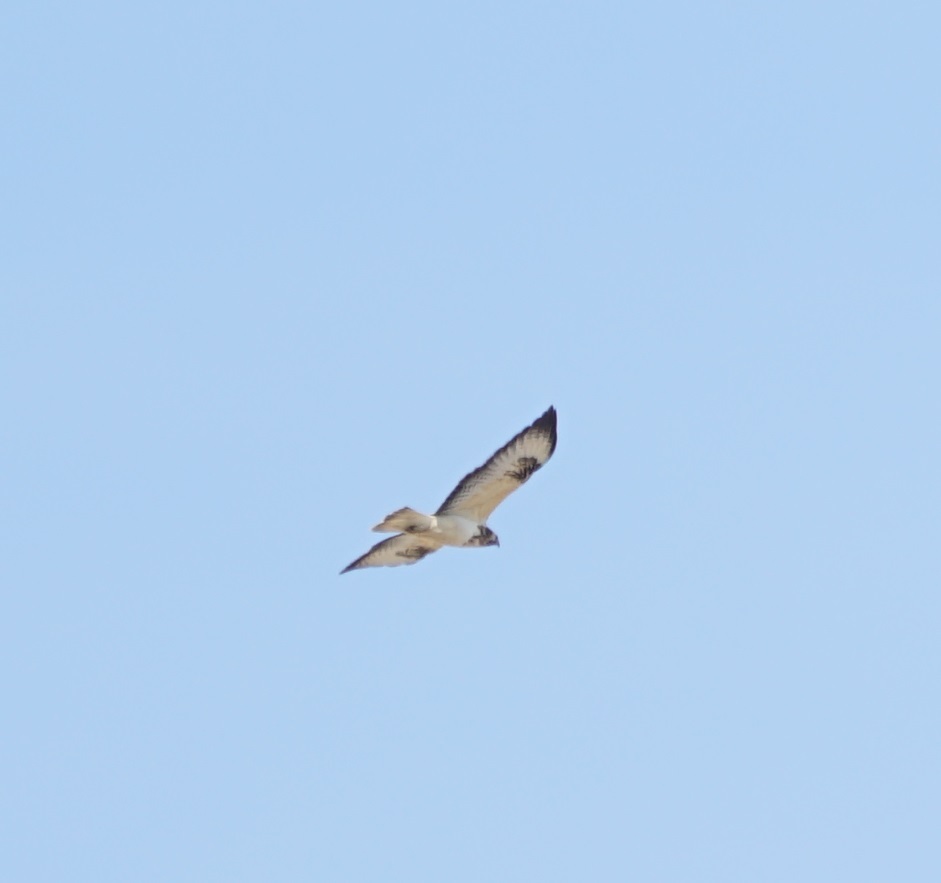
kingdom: Animalia
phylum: Chordata
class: Aves
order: Accipitriformes
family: Accipitridae
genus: Buteo
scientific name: Buteo buteo
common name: Common buzzard
